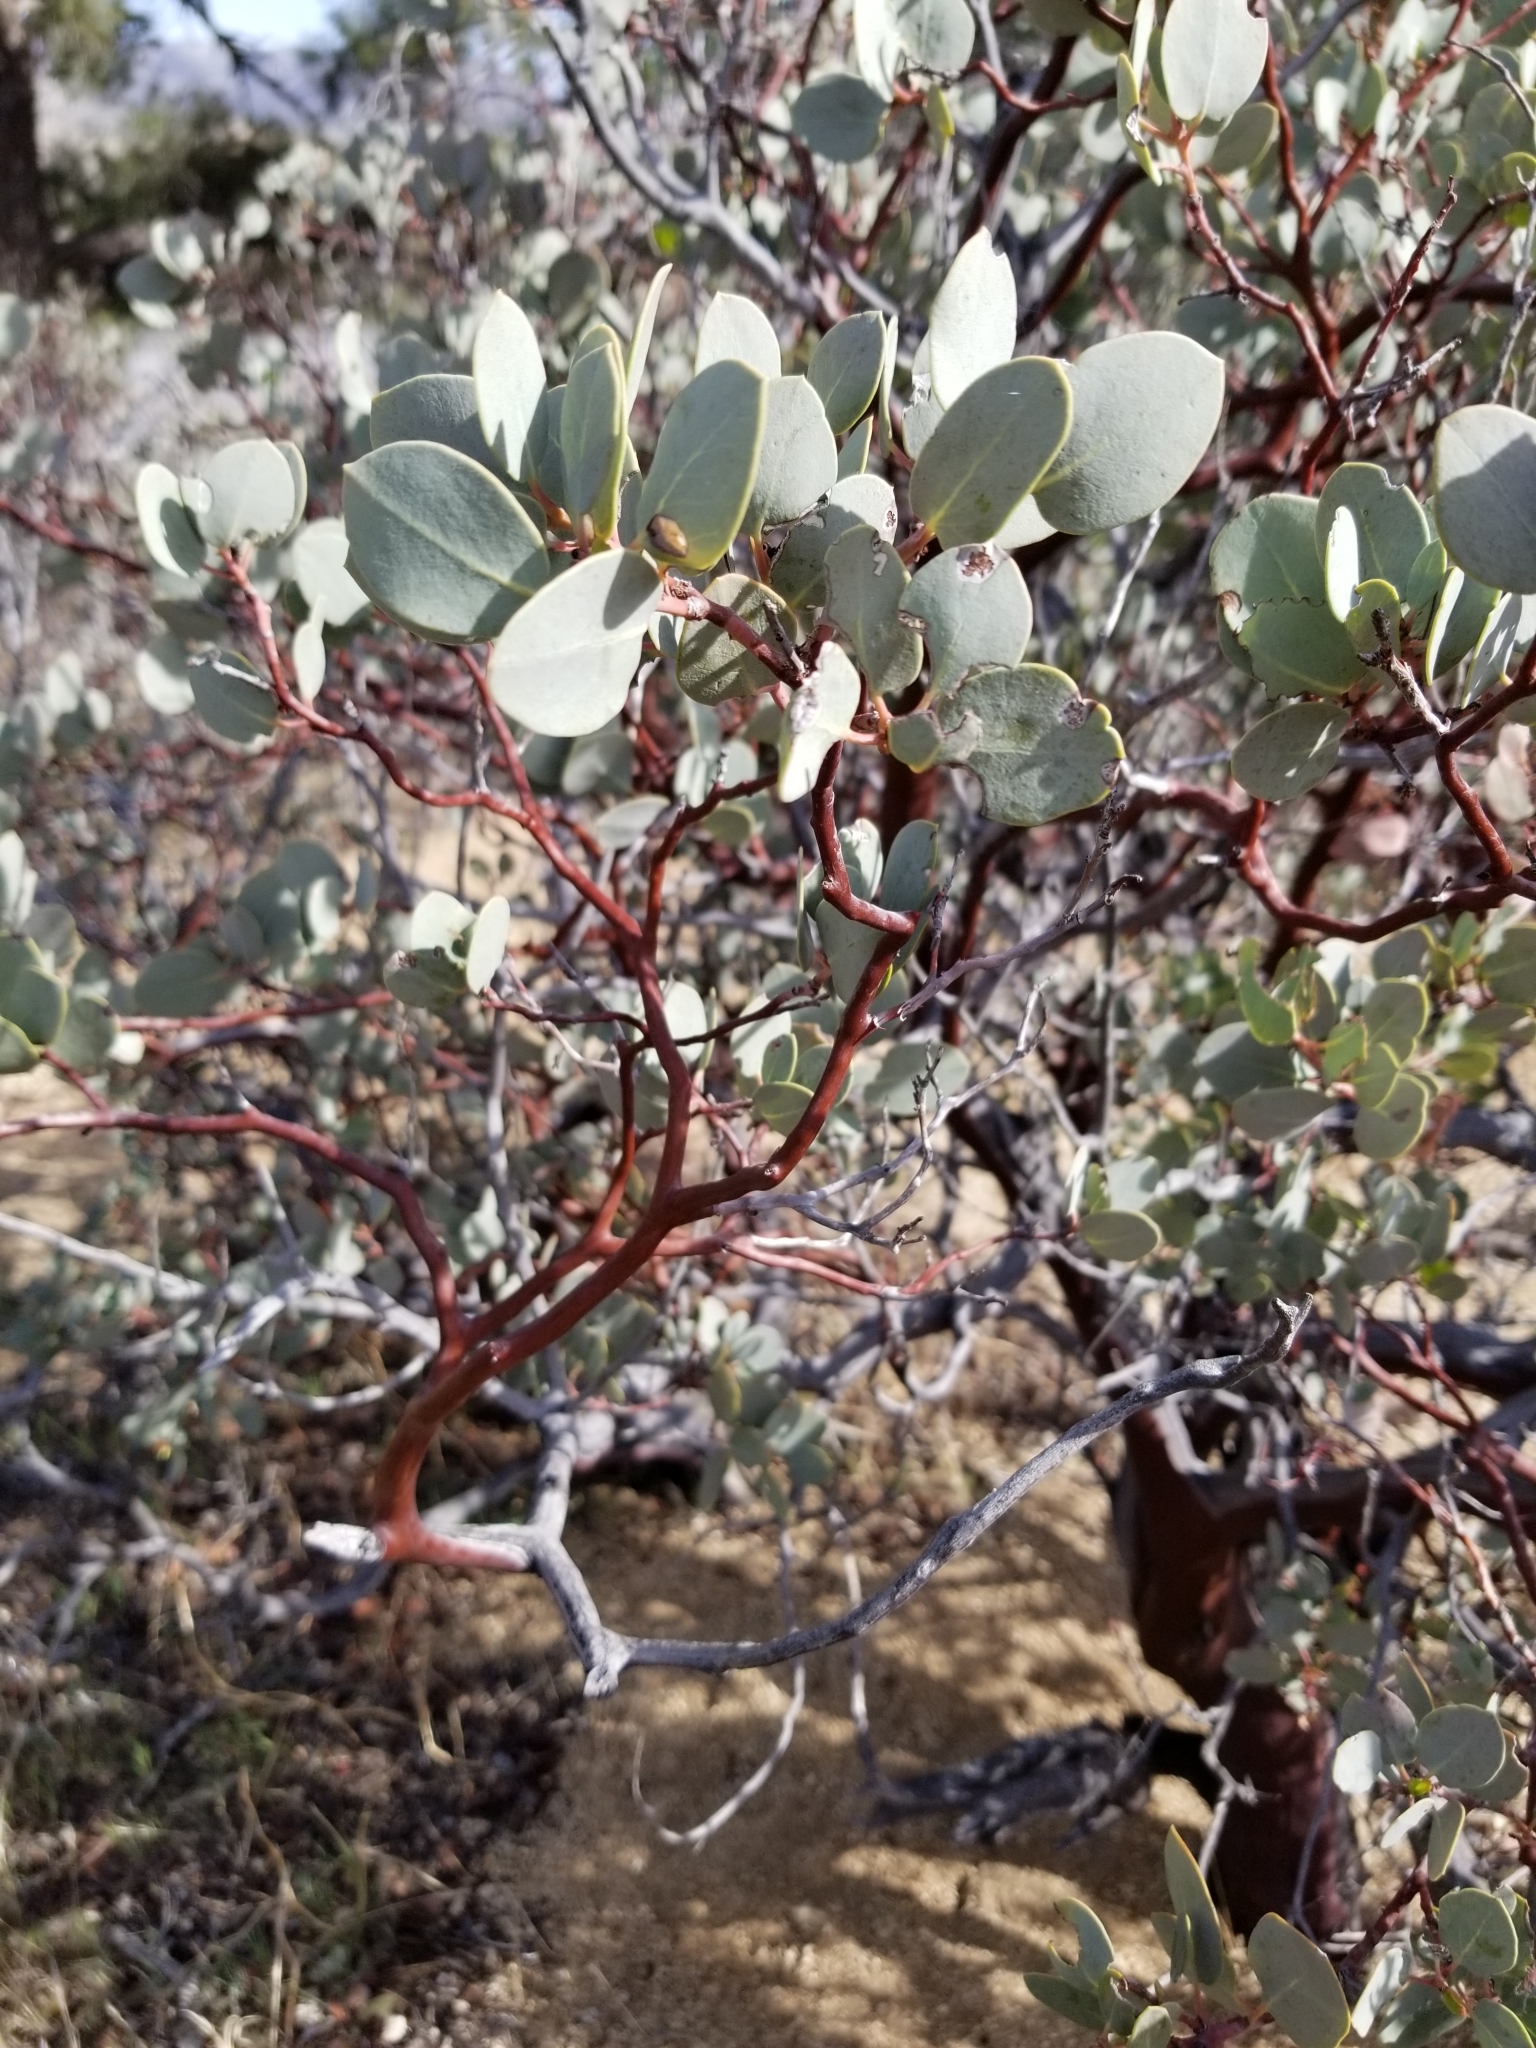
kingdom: Plantae
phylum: Tracheophyta
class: Magnoliopsida
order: Ericales
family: Ericaceae
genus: Arctostaphylos
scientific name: Arctostaphylos glauca
